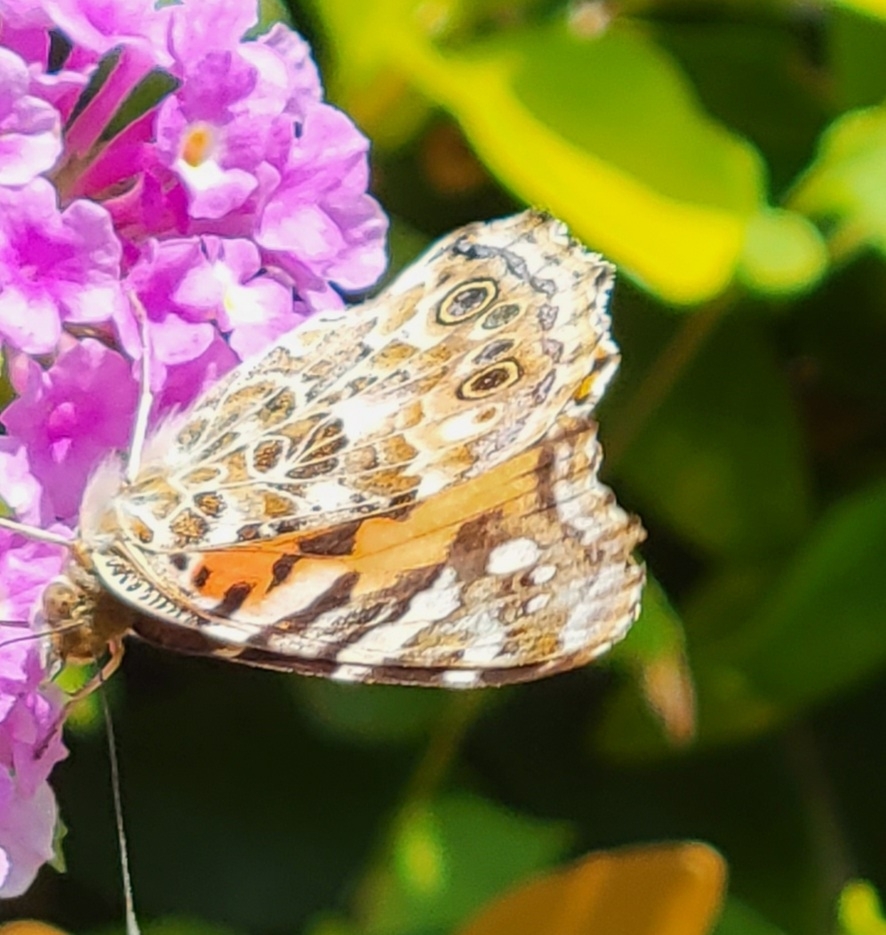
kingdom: Animalia
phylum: Arthropoda
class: Insecta
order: Lepidoptera
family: Nymphalidae
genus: Vanessa
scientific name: Vanessa cardui
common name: Painted lady
